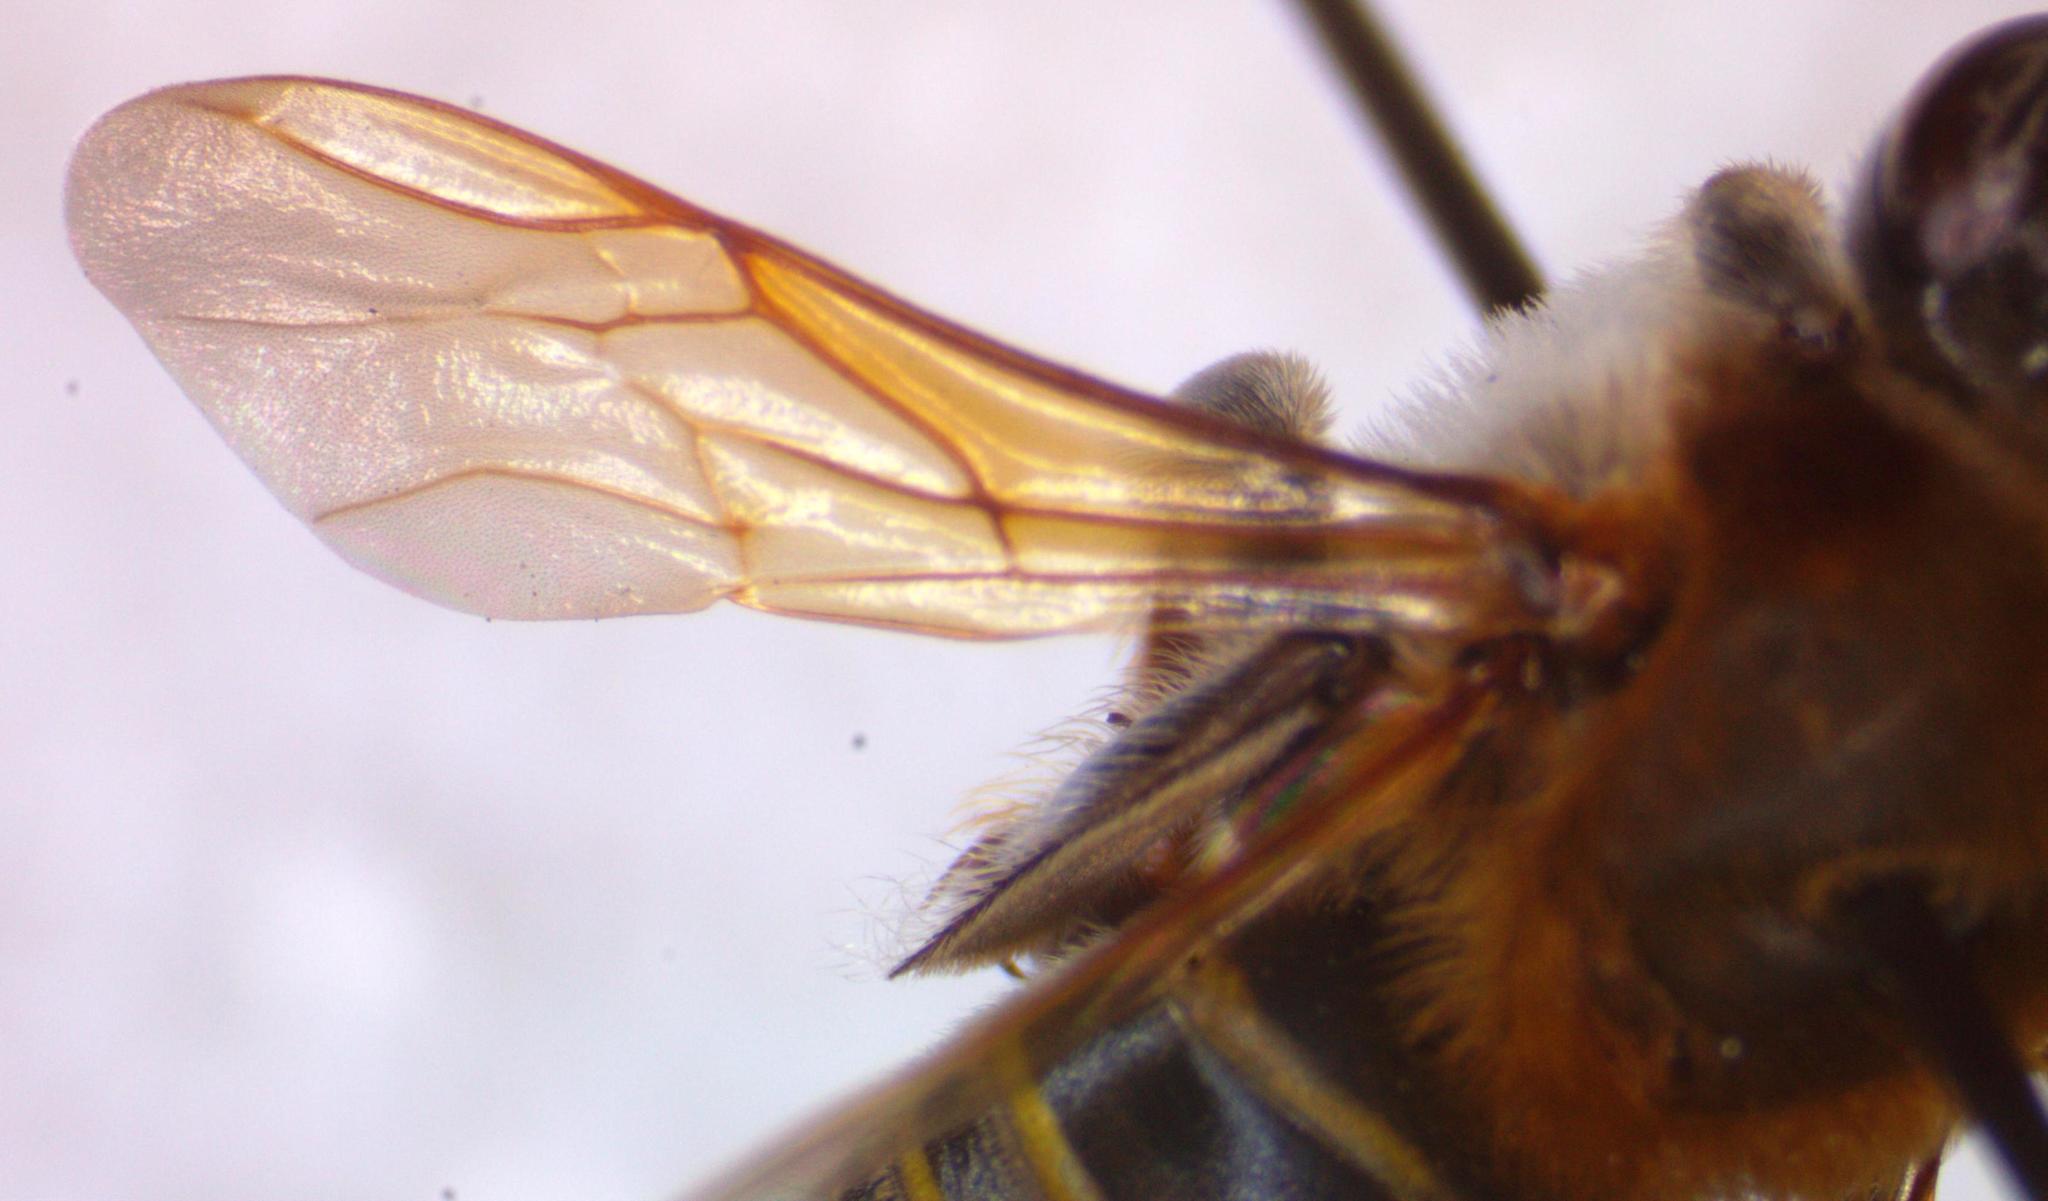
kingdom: Animalia
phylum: Arthropoda
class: Insecta
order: Hymenoptera
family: Apidae
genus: Melipona
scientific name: Melipona beecheii
